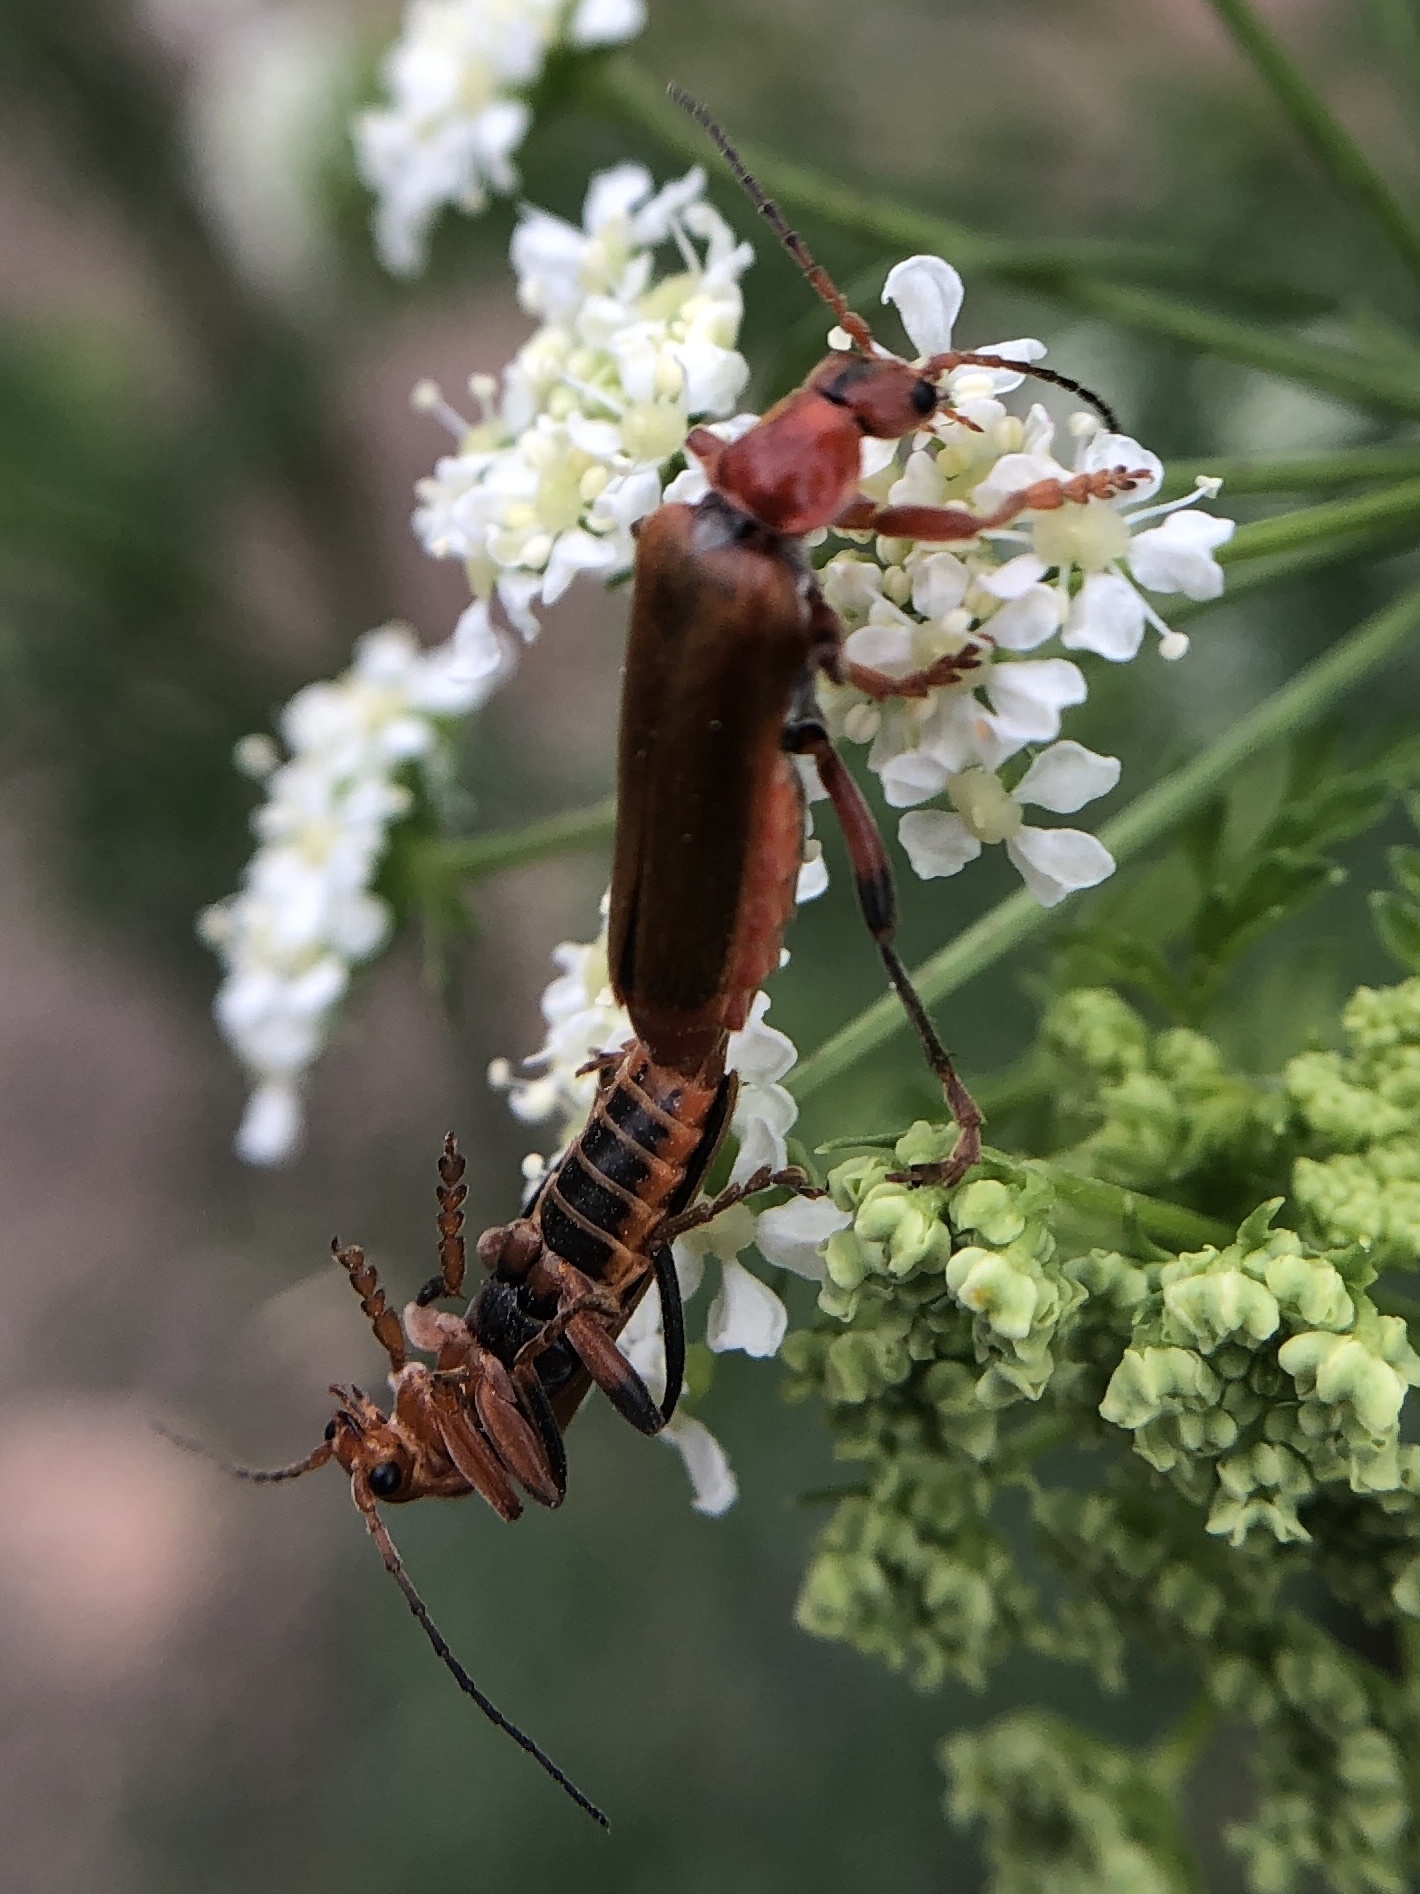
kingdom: Animalia
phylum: Arthropoda
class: Insecta
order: Coleoptera
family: Cantharidae
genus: Cantharis
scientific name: Cantharis livida
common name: Livid soldier beetle
